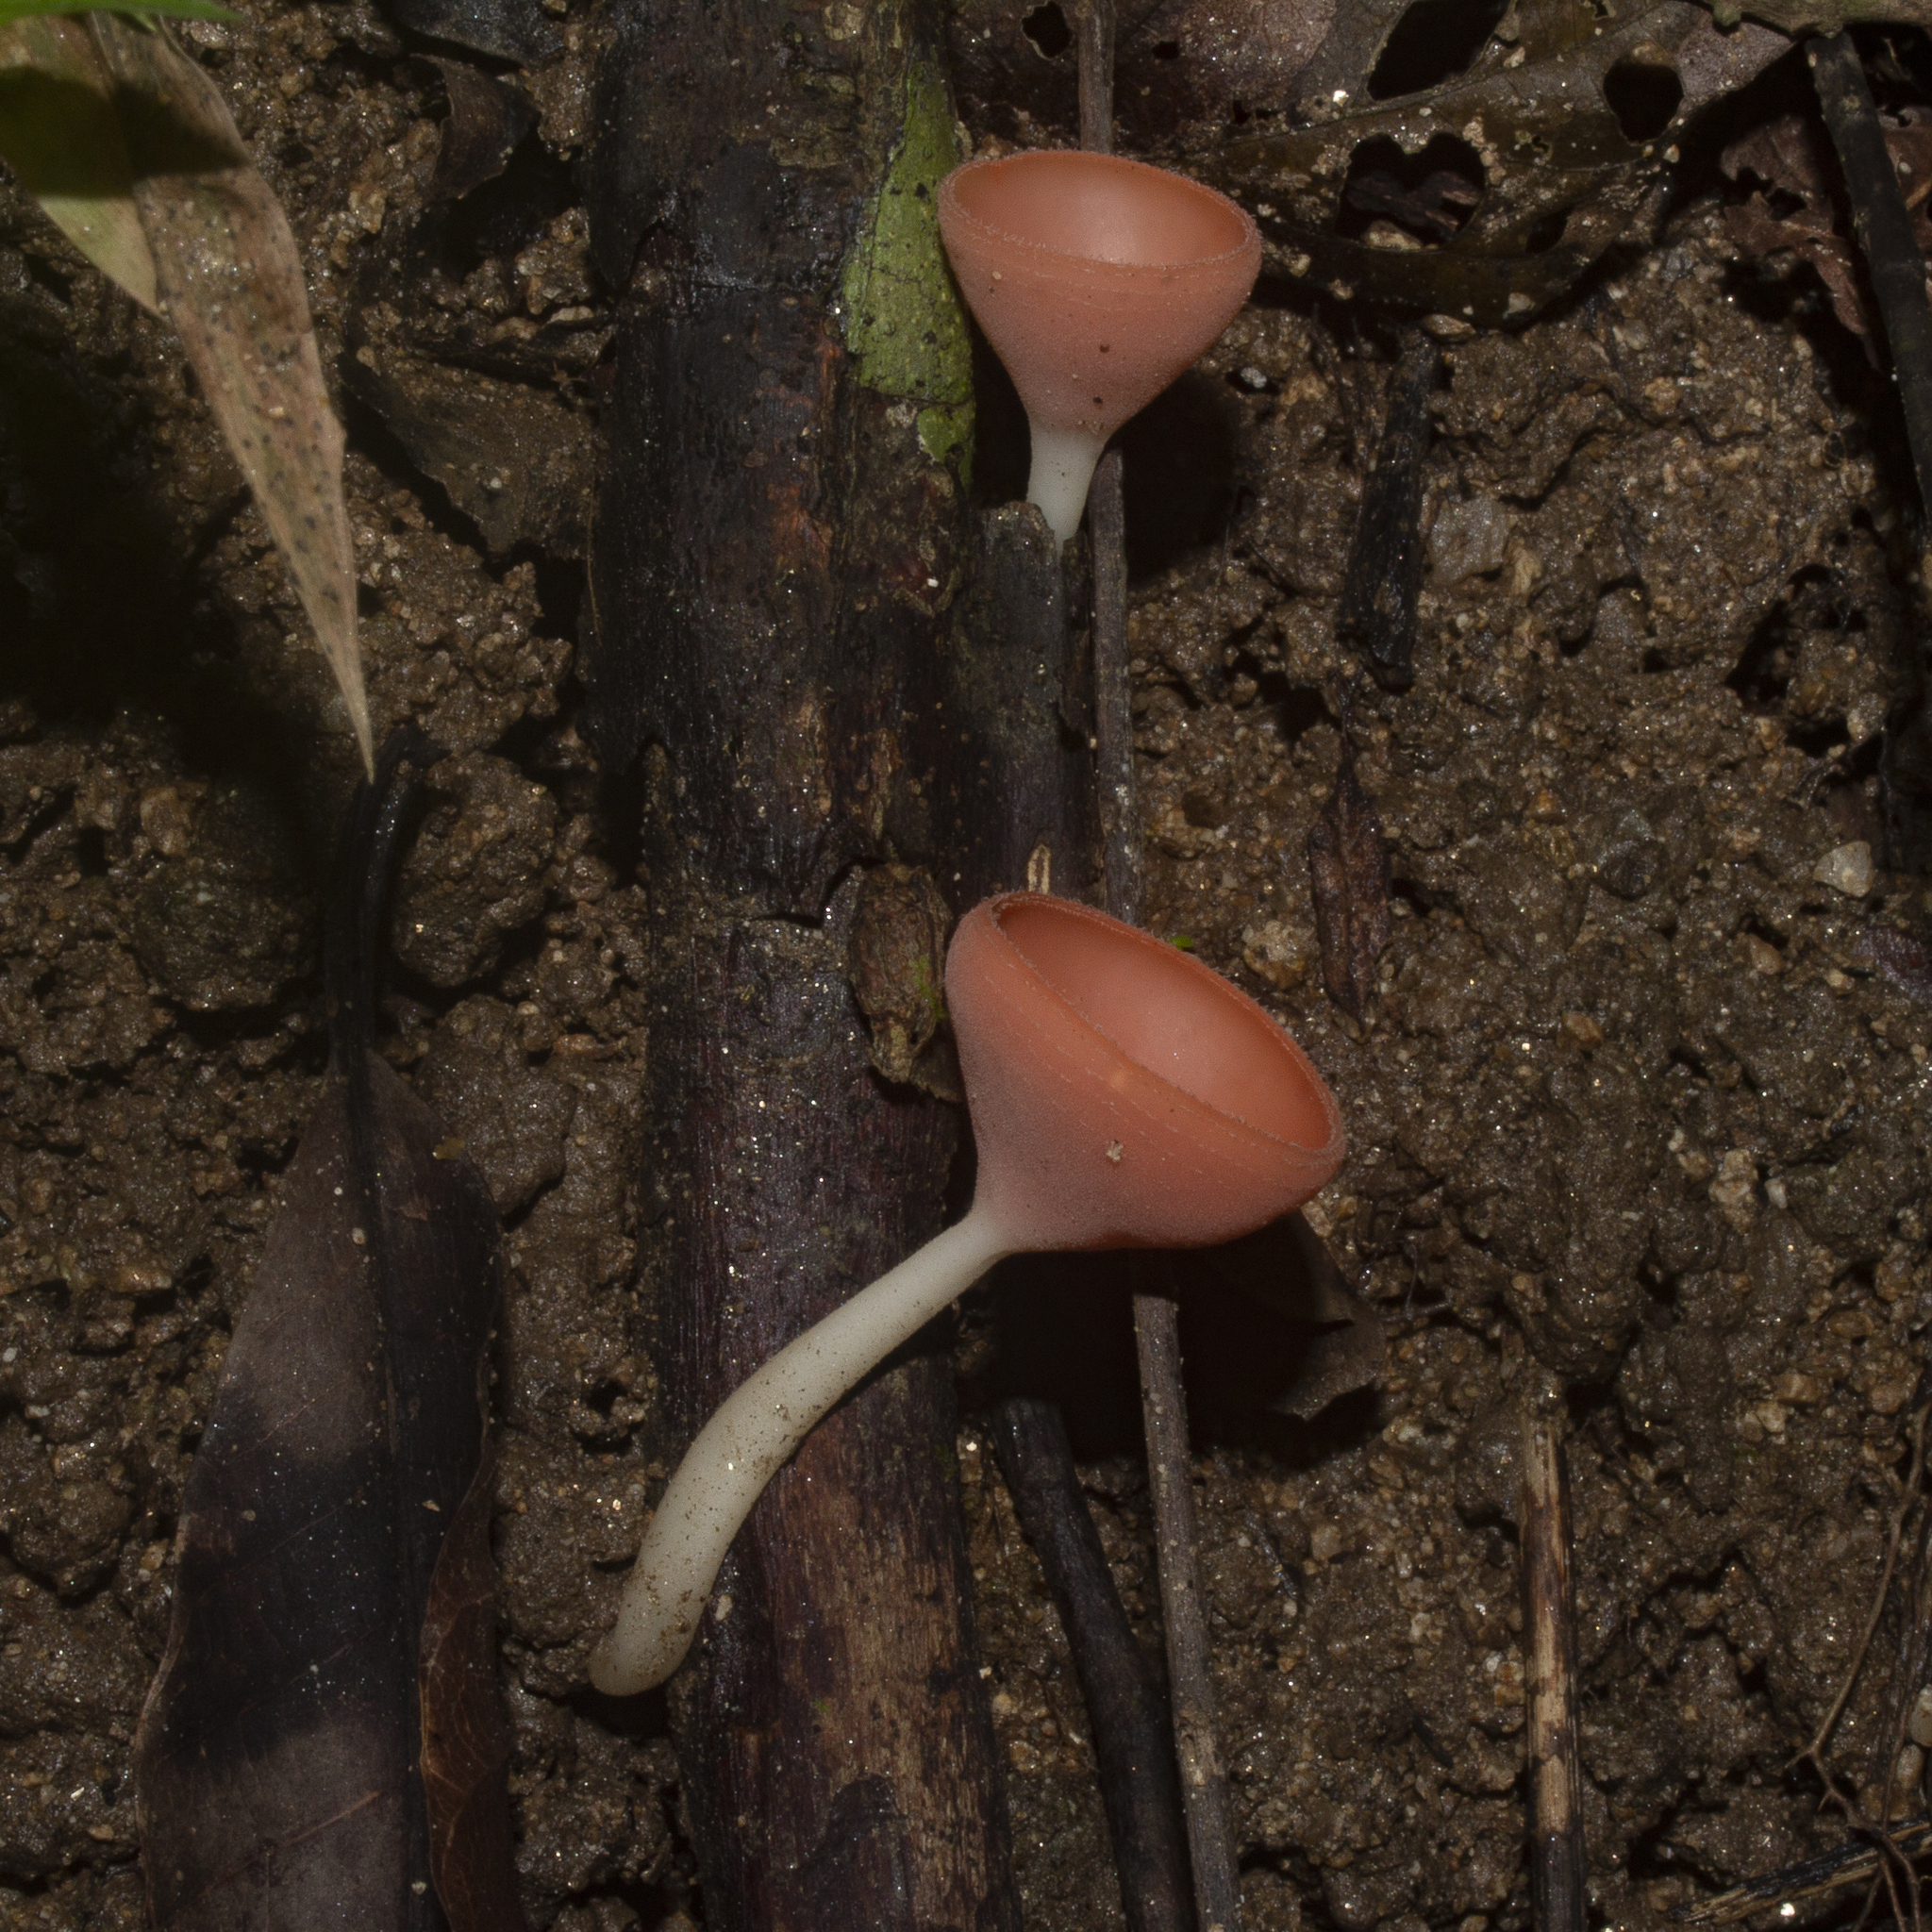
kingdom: Fungi
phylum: Ascomycota
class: Pezizomycetes
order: Pezizales
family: Sarcoscyphaceae
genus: Cookeina
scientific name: Cookeina speciosa
